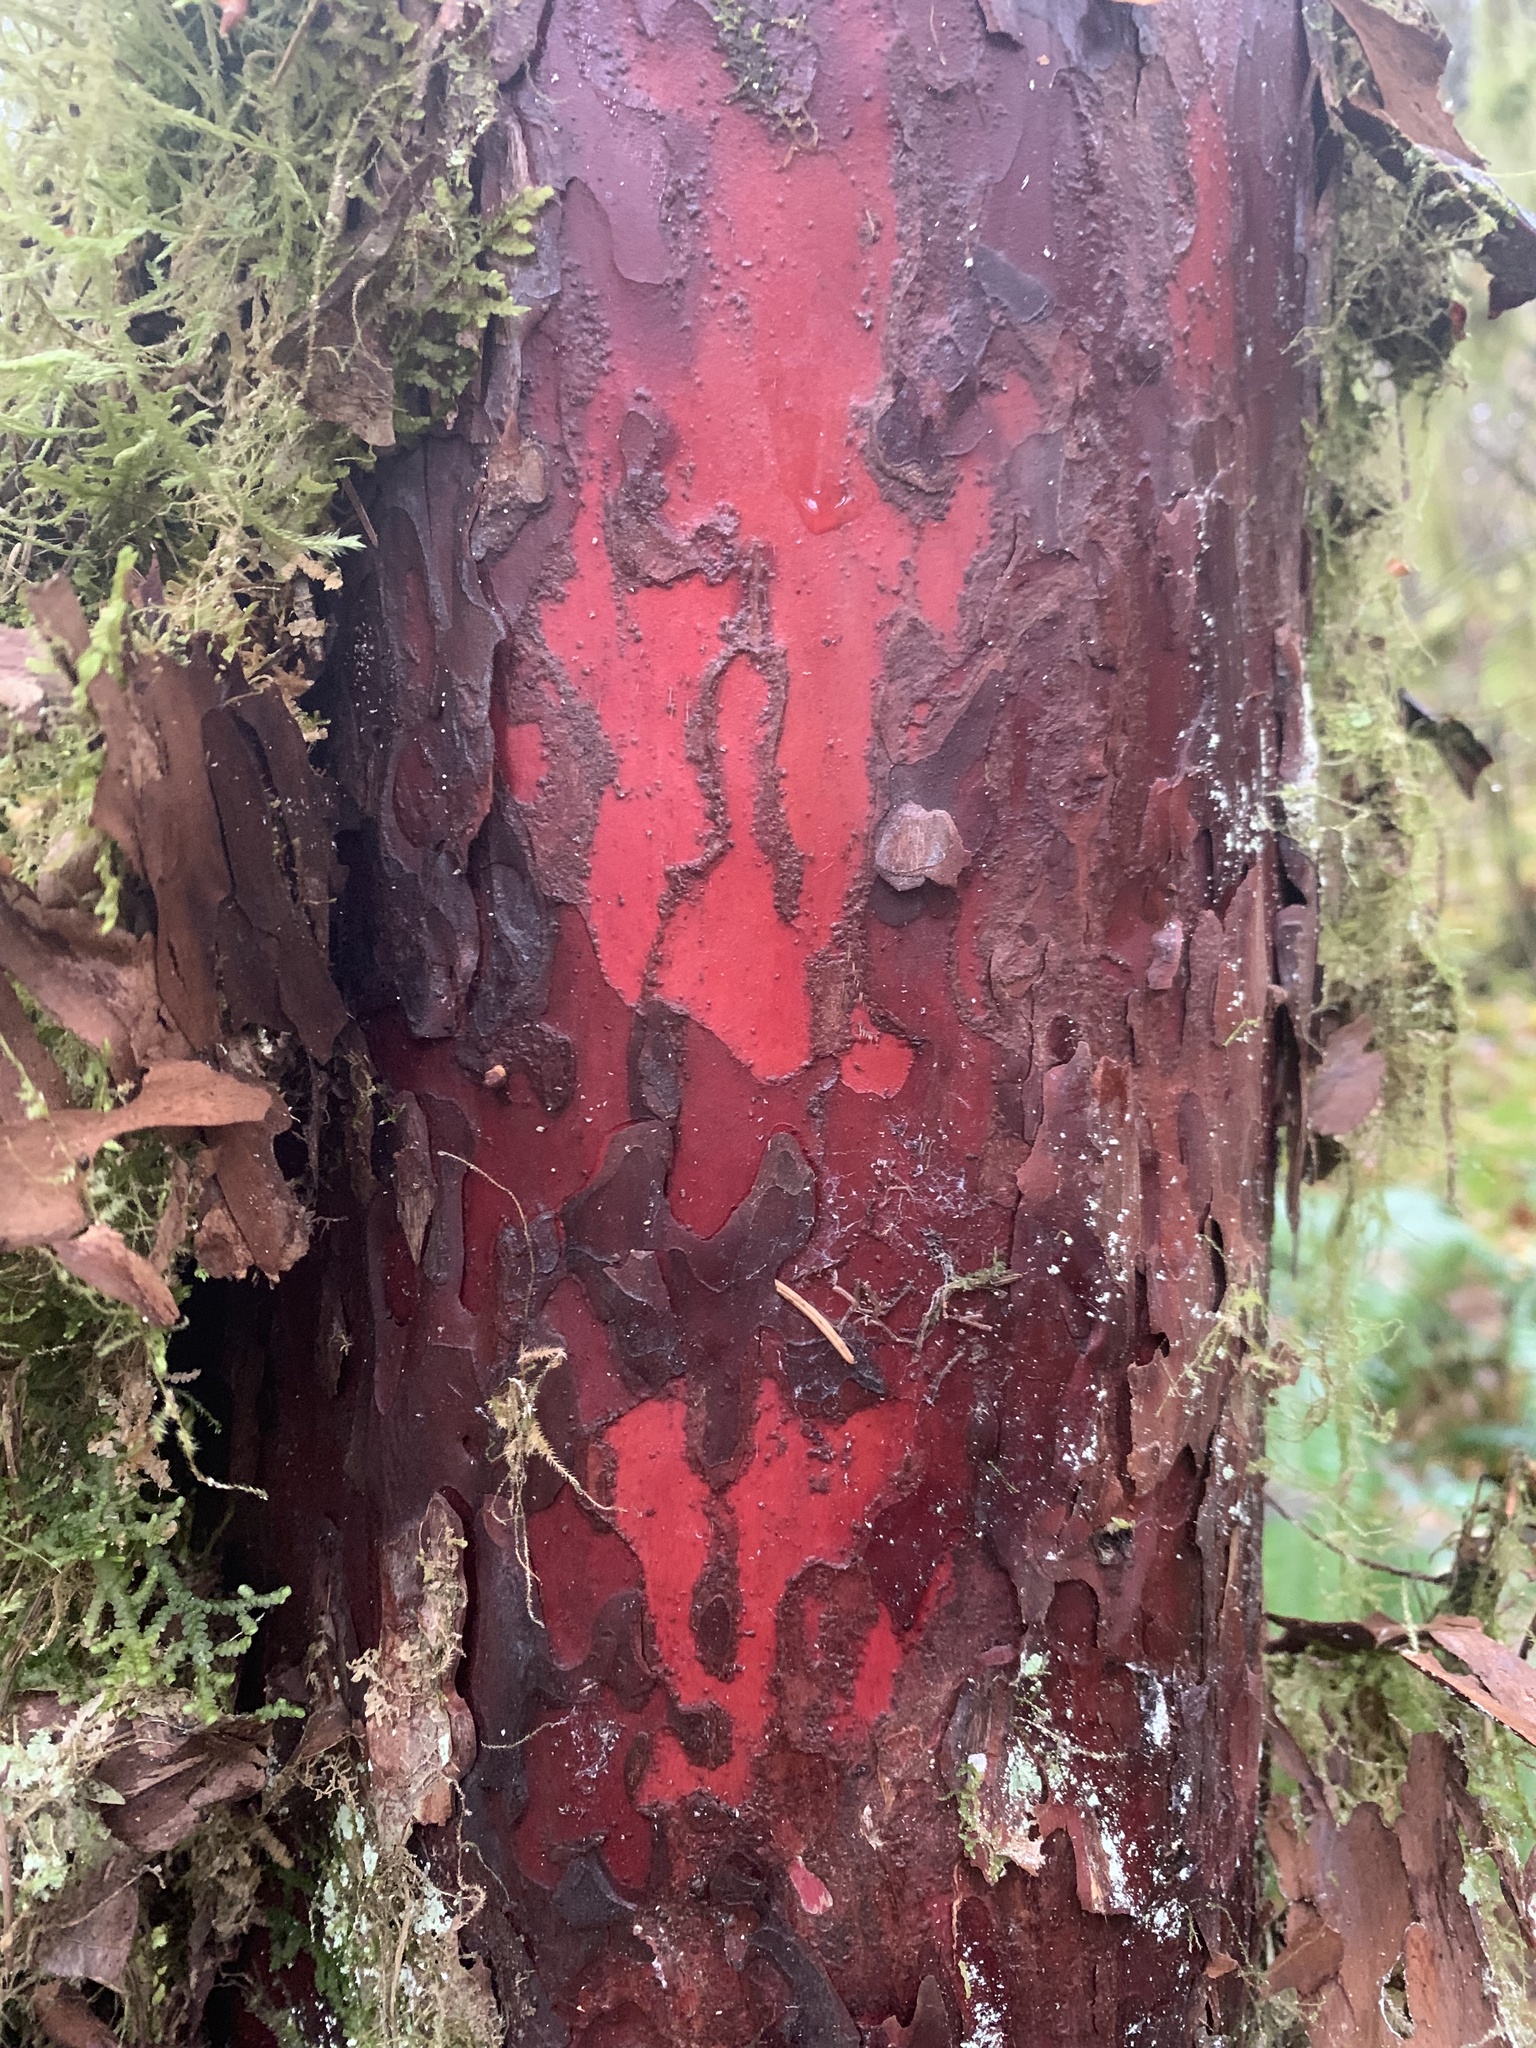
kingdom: Plantae
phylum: Tracheophyta
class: Pinopsida
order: Pinales
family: Taxaceae
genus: Taxus
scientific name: Taxus brevifolia
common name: Pacific yew
